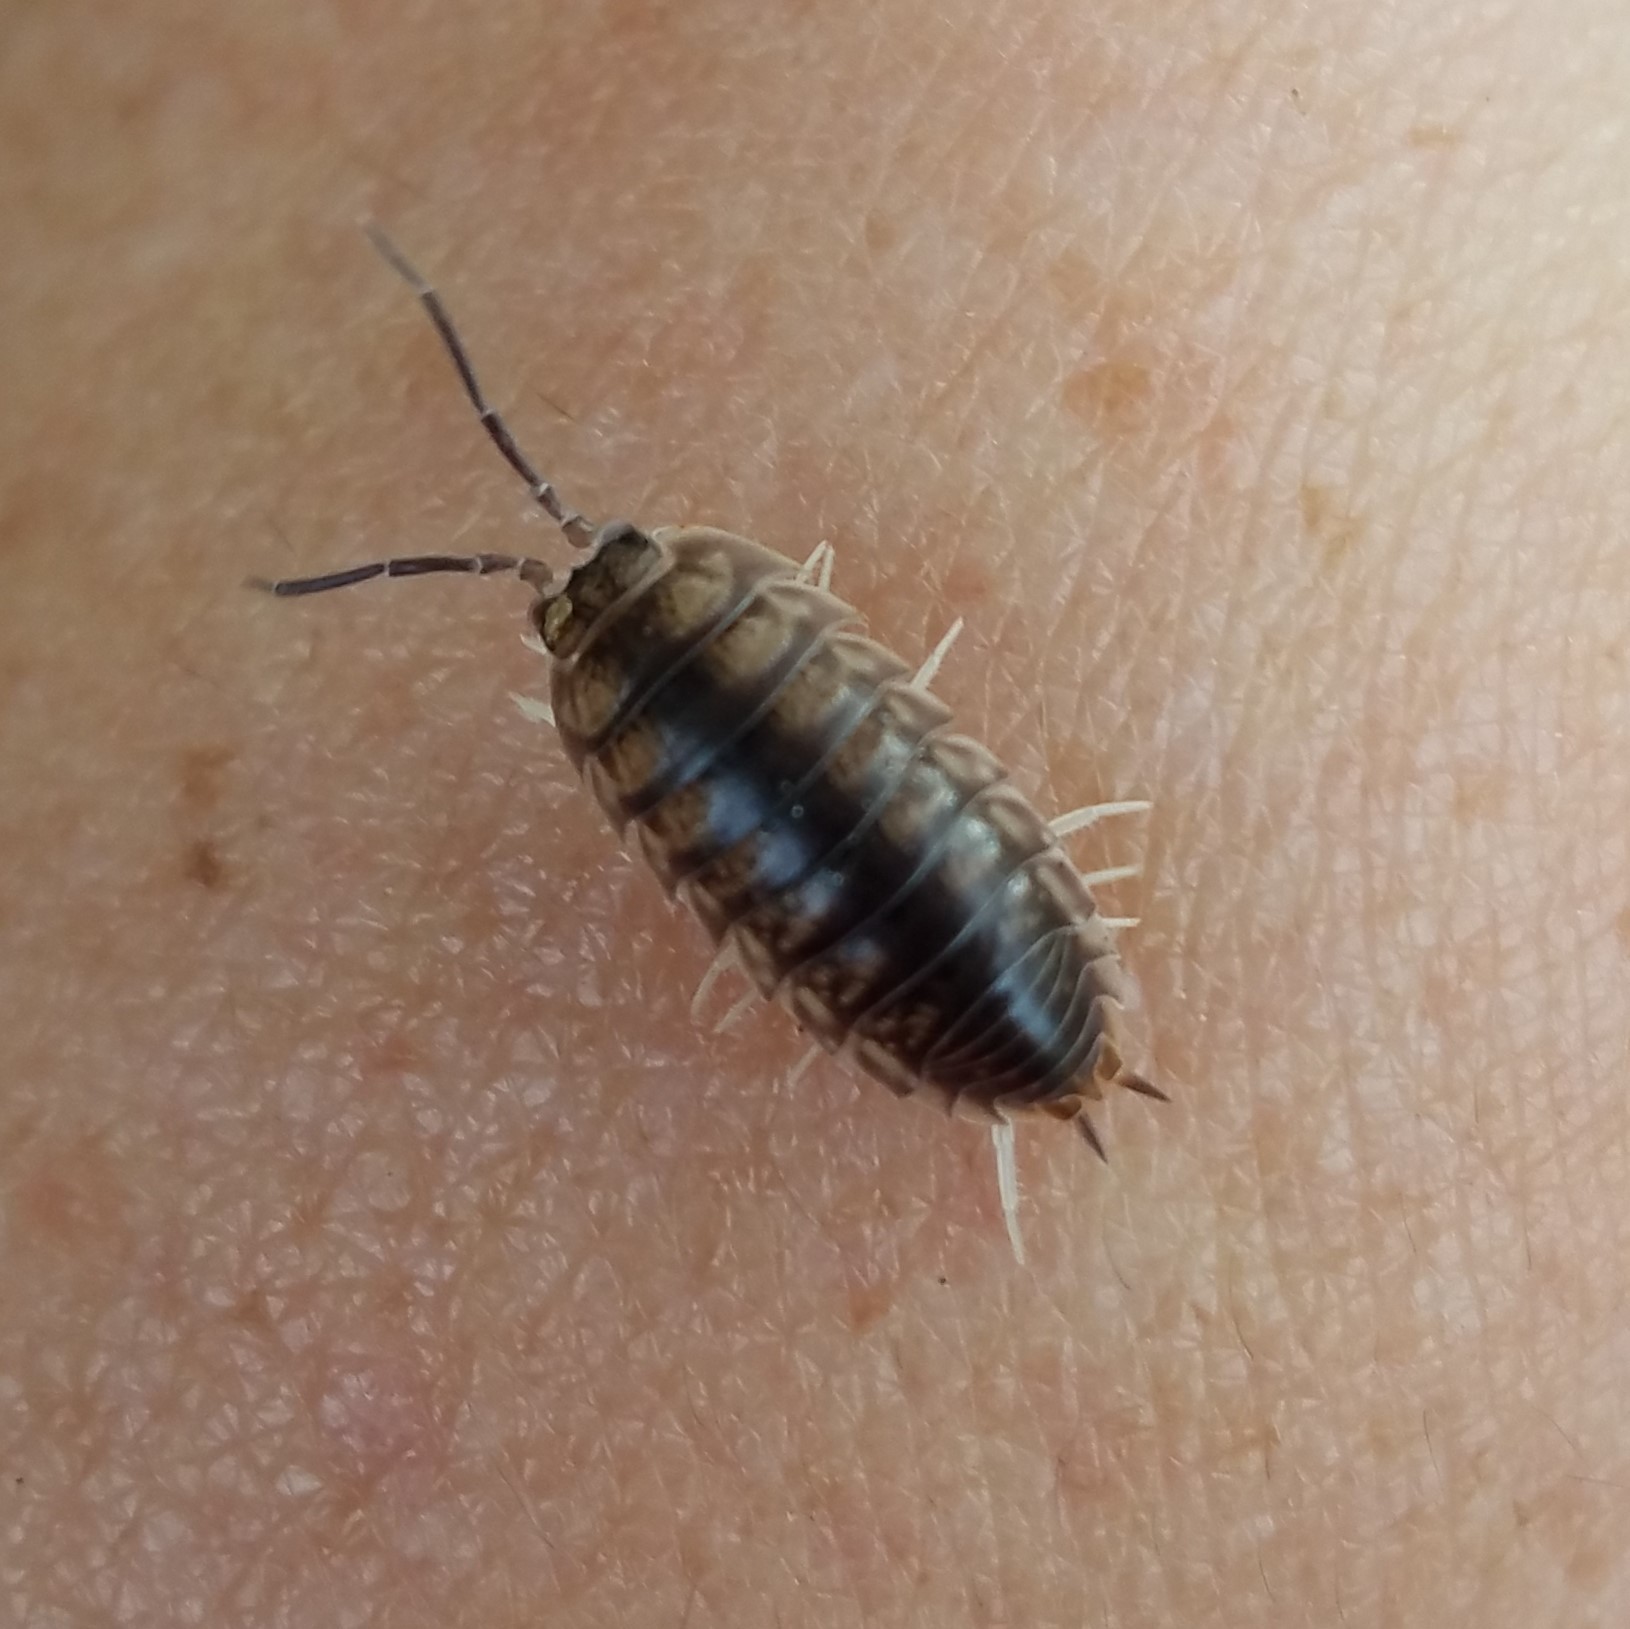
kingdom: Animalia
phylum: Arthropoda
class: Malacostraca
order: Isopoda
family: Cylisticidae
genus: Cylisticus
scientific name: Cylisticus convexus
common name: Curly woodlouse
